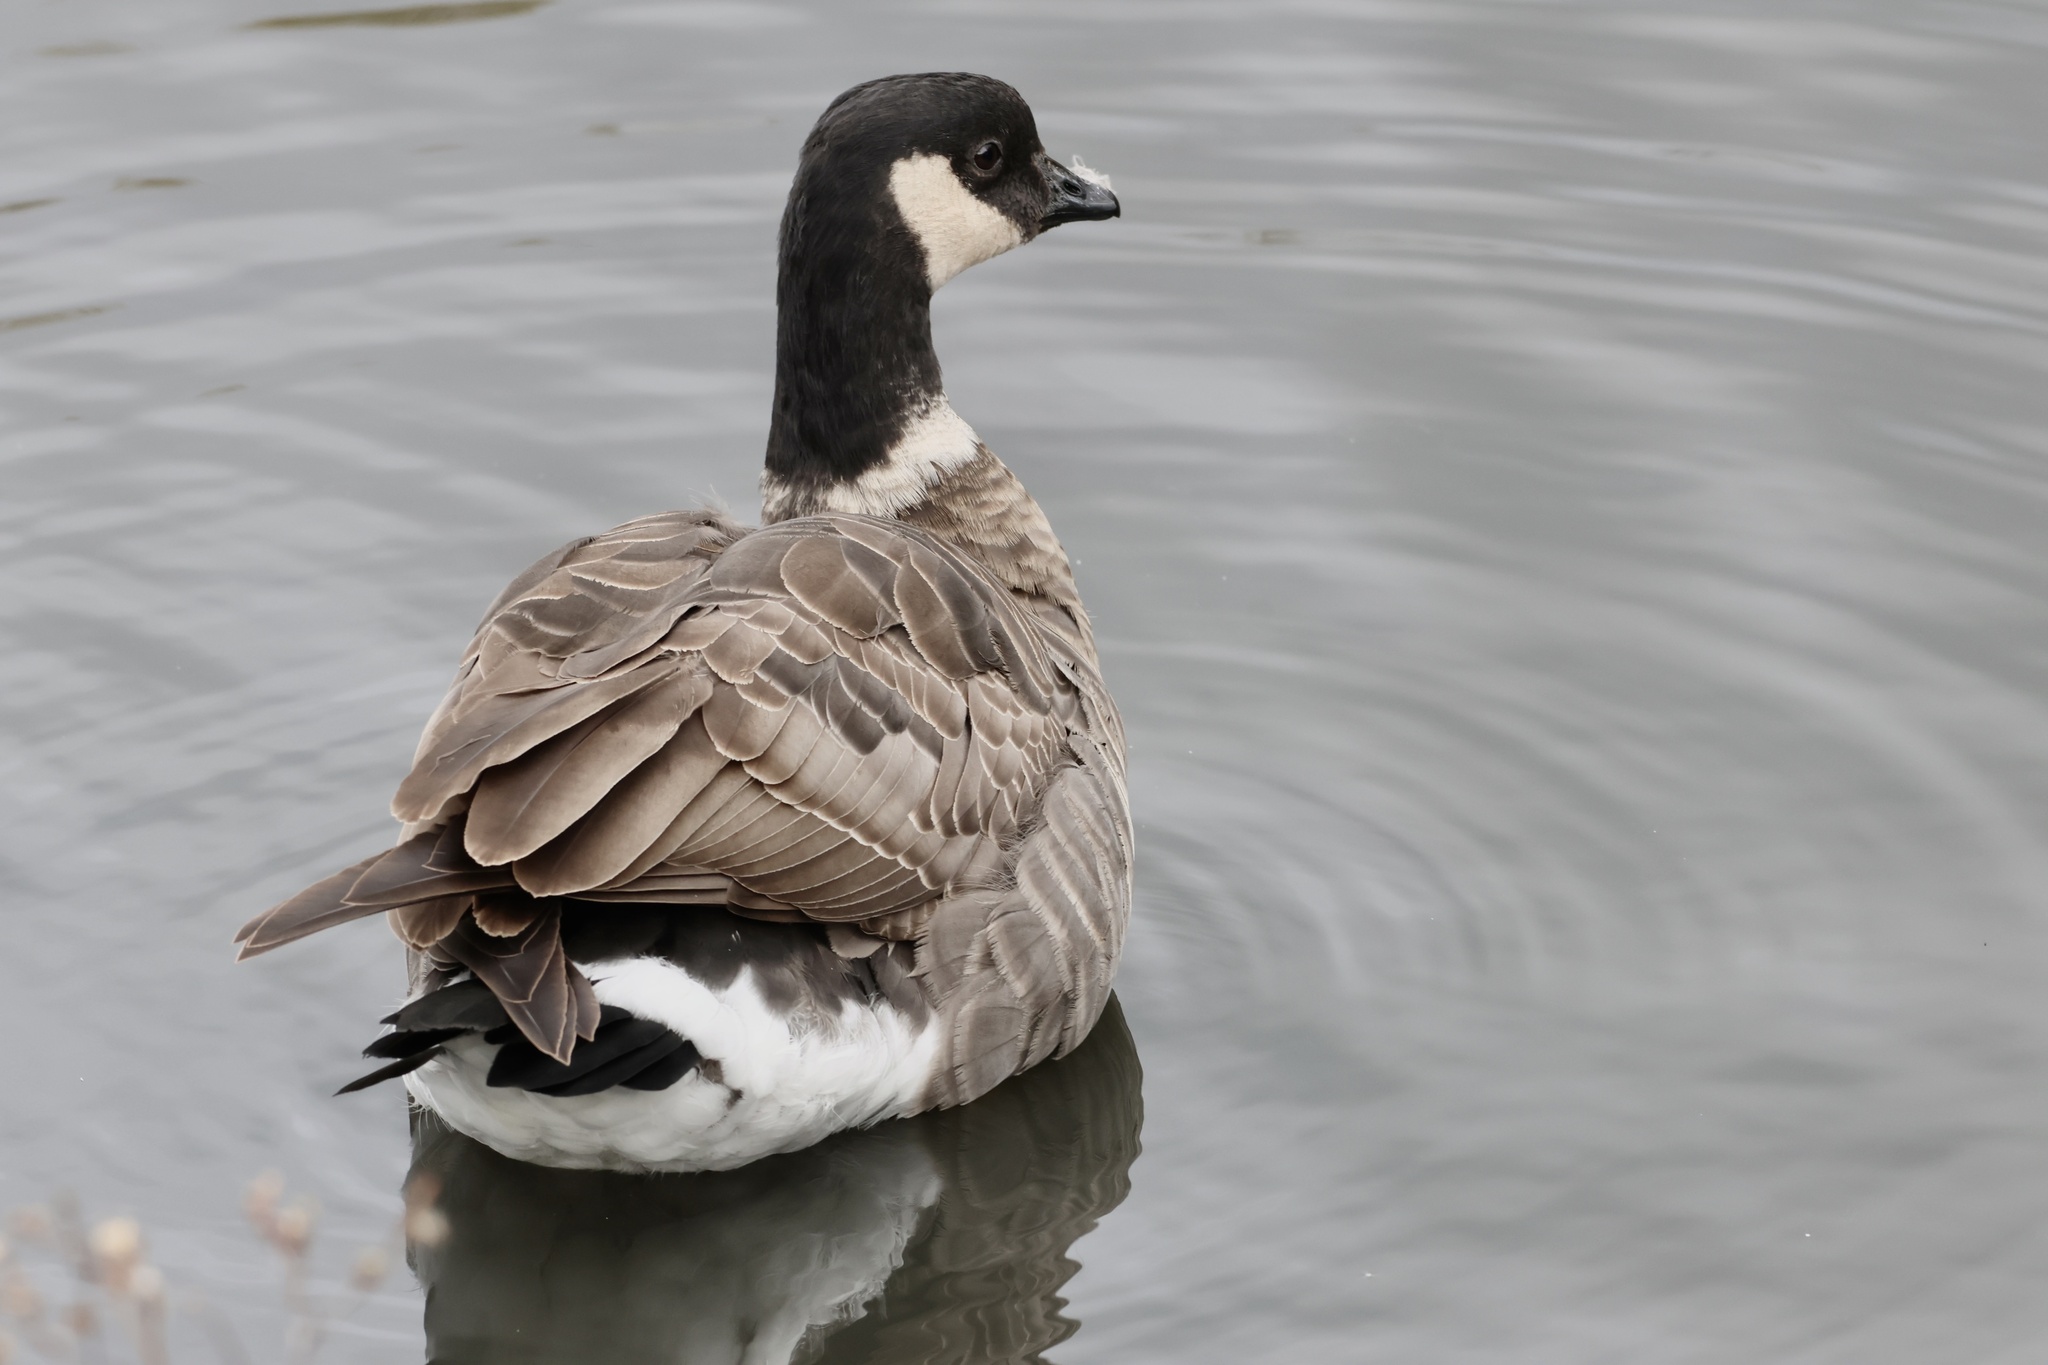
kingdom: Animalia
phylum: Chordata
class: Aves
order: Anseriformes
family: Anatidae
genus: Branta
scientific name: Branta hutchinsii
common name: Cackling goose
